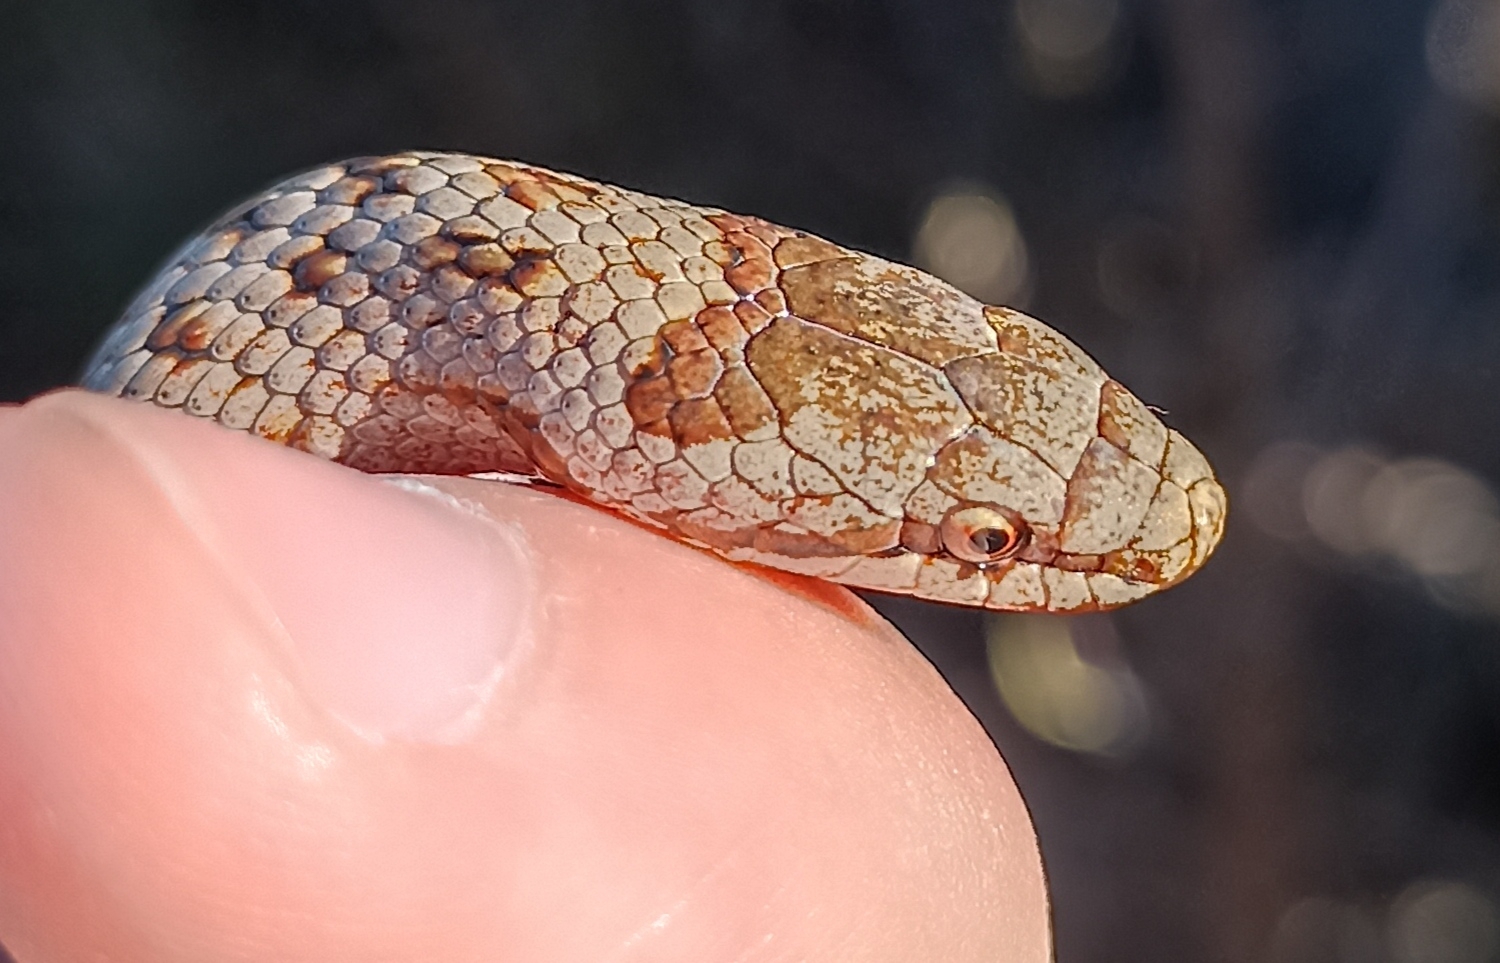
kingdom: Animalia
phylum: Chordata
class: Squamata
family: Colubridae
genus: Coronella
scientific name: Coronella austriaca
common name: Smooth snake
